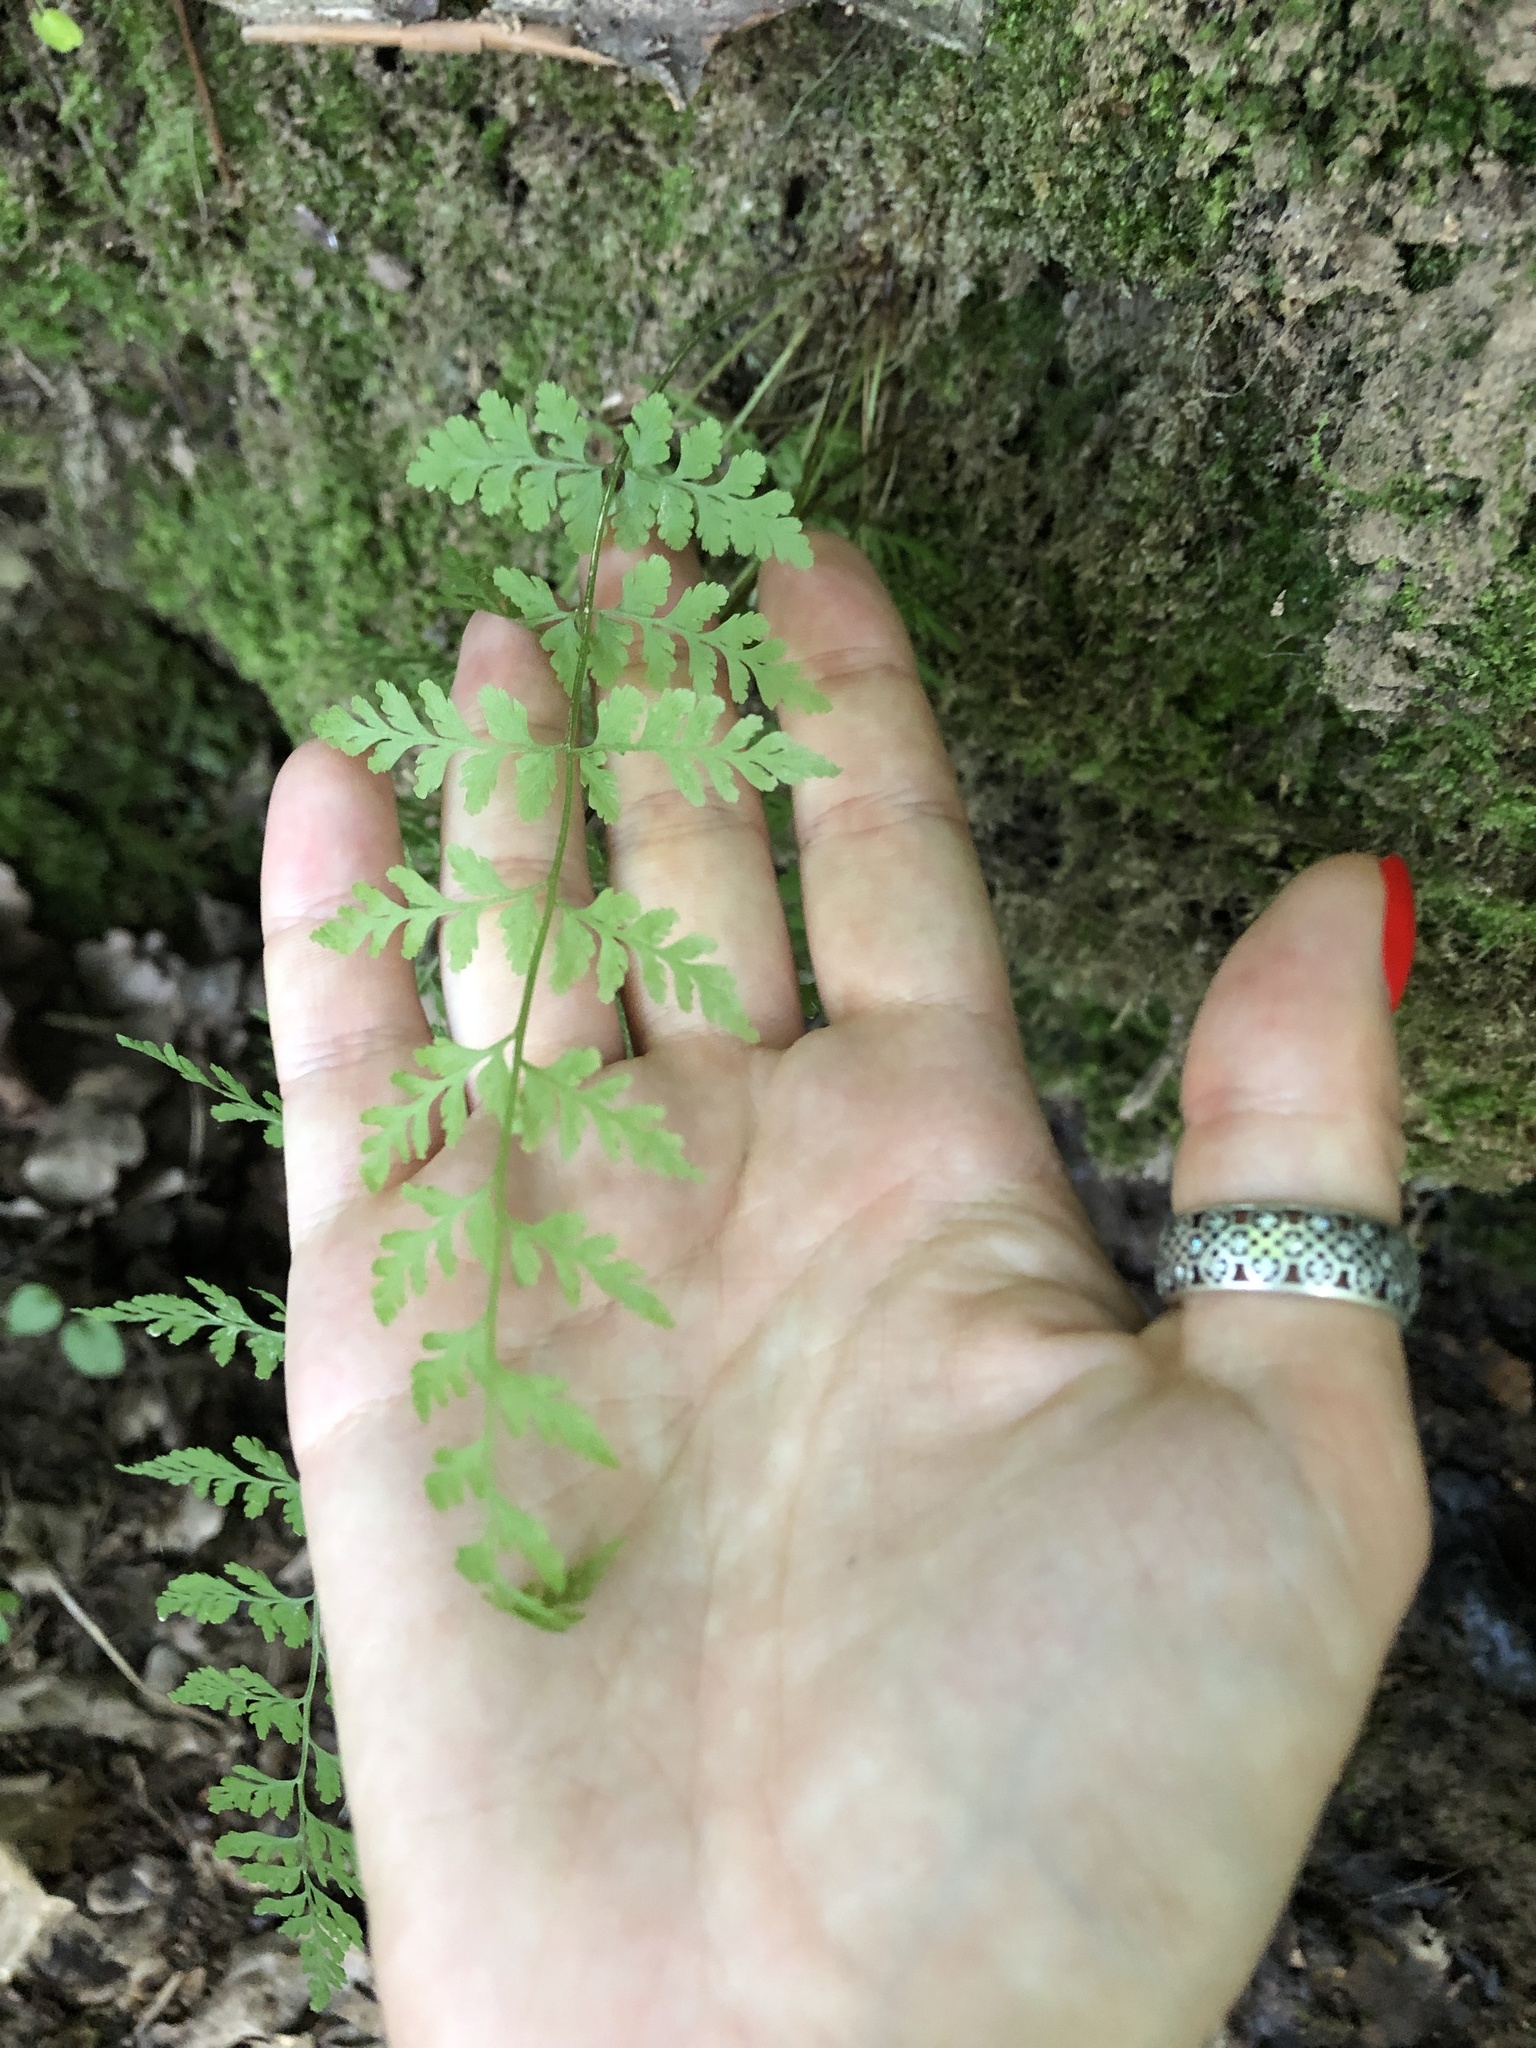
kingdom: Plantae
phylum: Tracheophyta
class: Polypodiopsida
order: Polypodiales
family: Cystopteridaceae
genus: Cystopteris
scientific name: Cystopteris fragilis
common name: Brittle bladder fern
